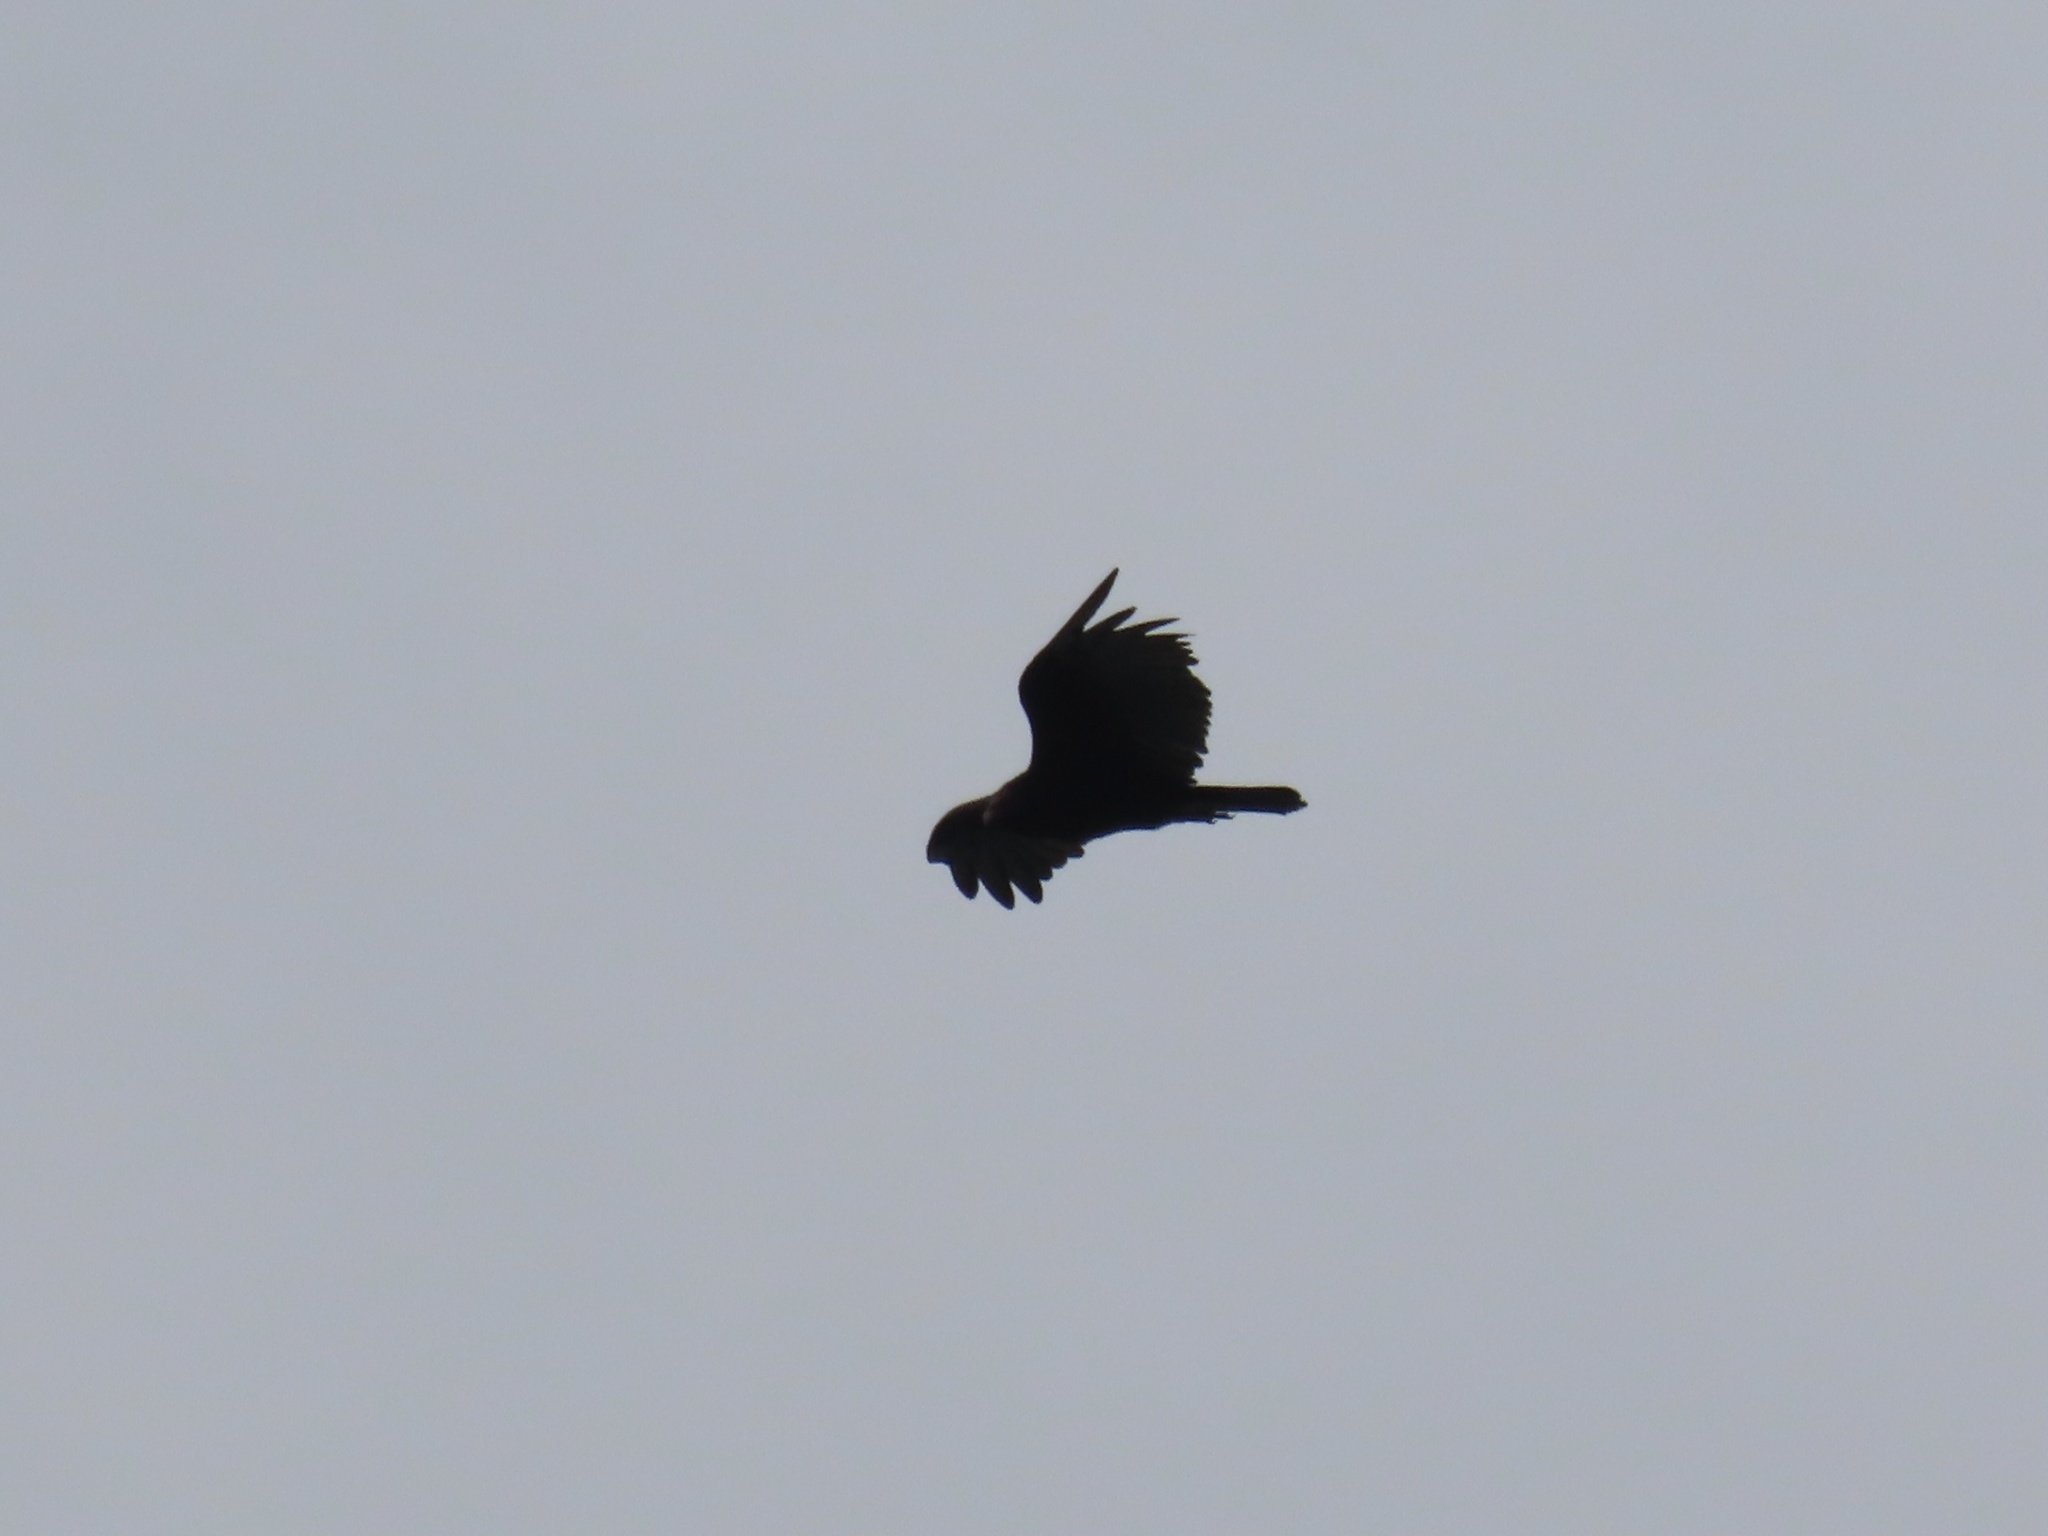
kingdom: Animalia
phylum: Chordata
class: Aves
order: Accipitriformes
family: Cathartidae
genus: Cathartes
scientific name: Cathartes aura
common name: Turkey vulture
